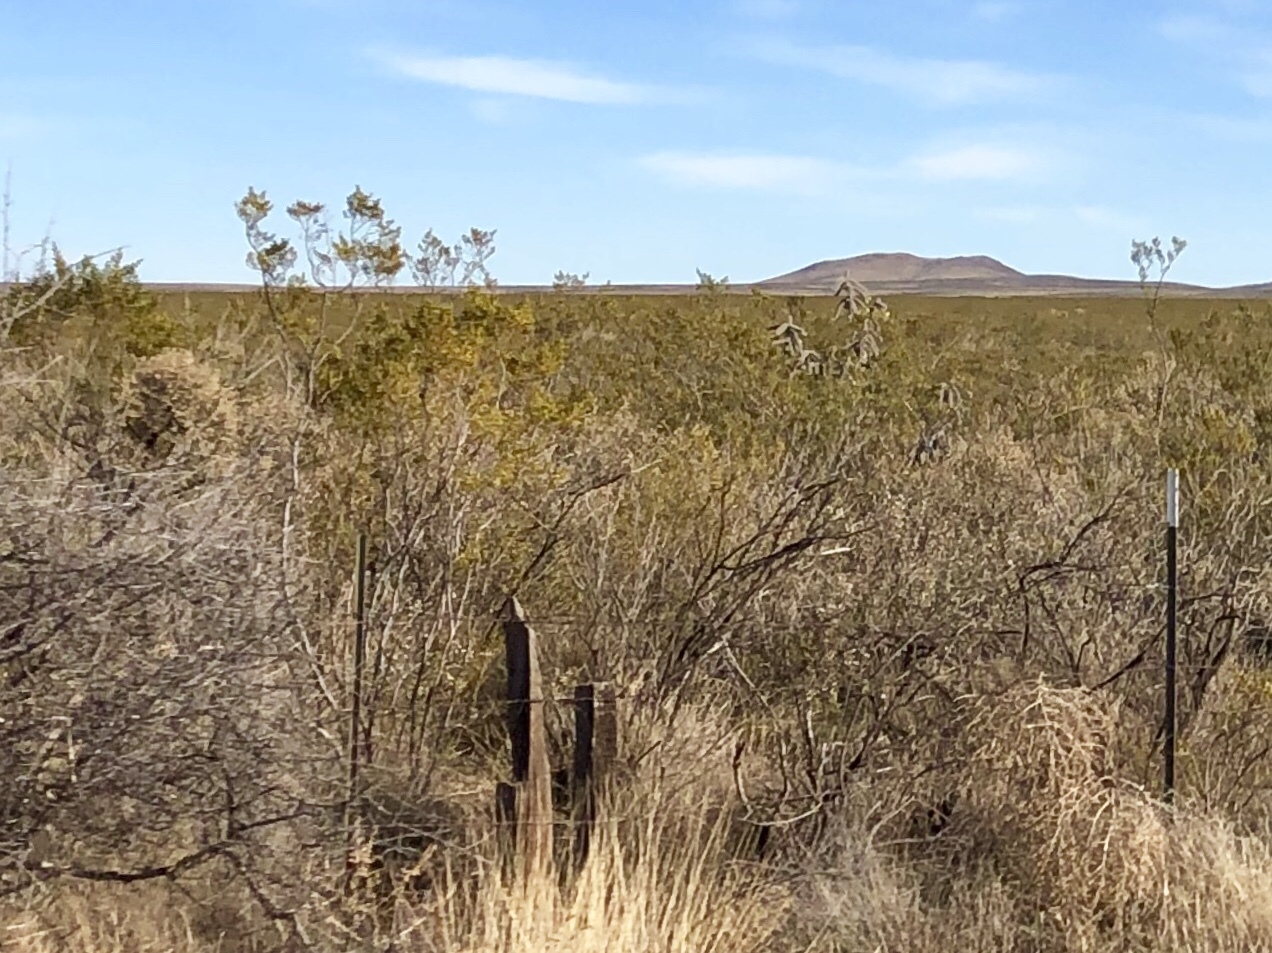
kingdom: Plantae
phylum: Tracheophyta
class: Magnoliopsida
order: Zygophyllales
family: Zygophyllaceae
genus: Larrea
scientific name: Larrea tridentata
